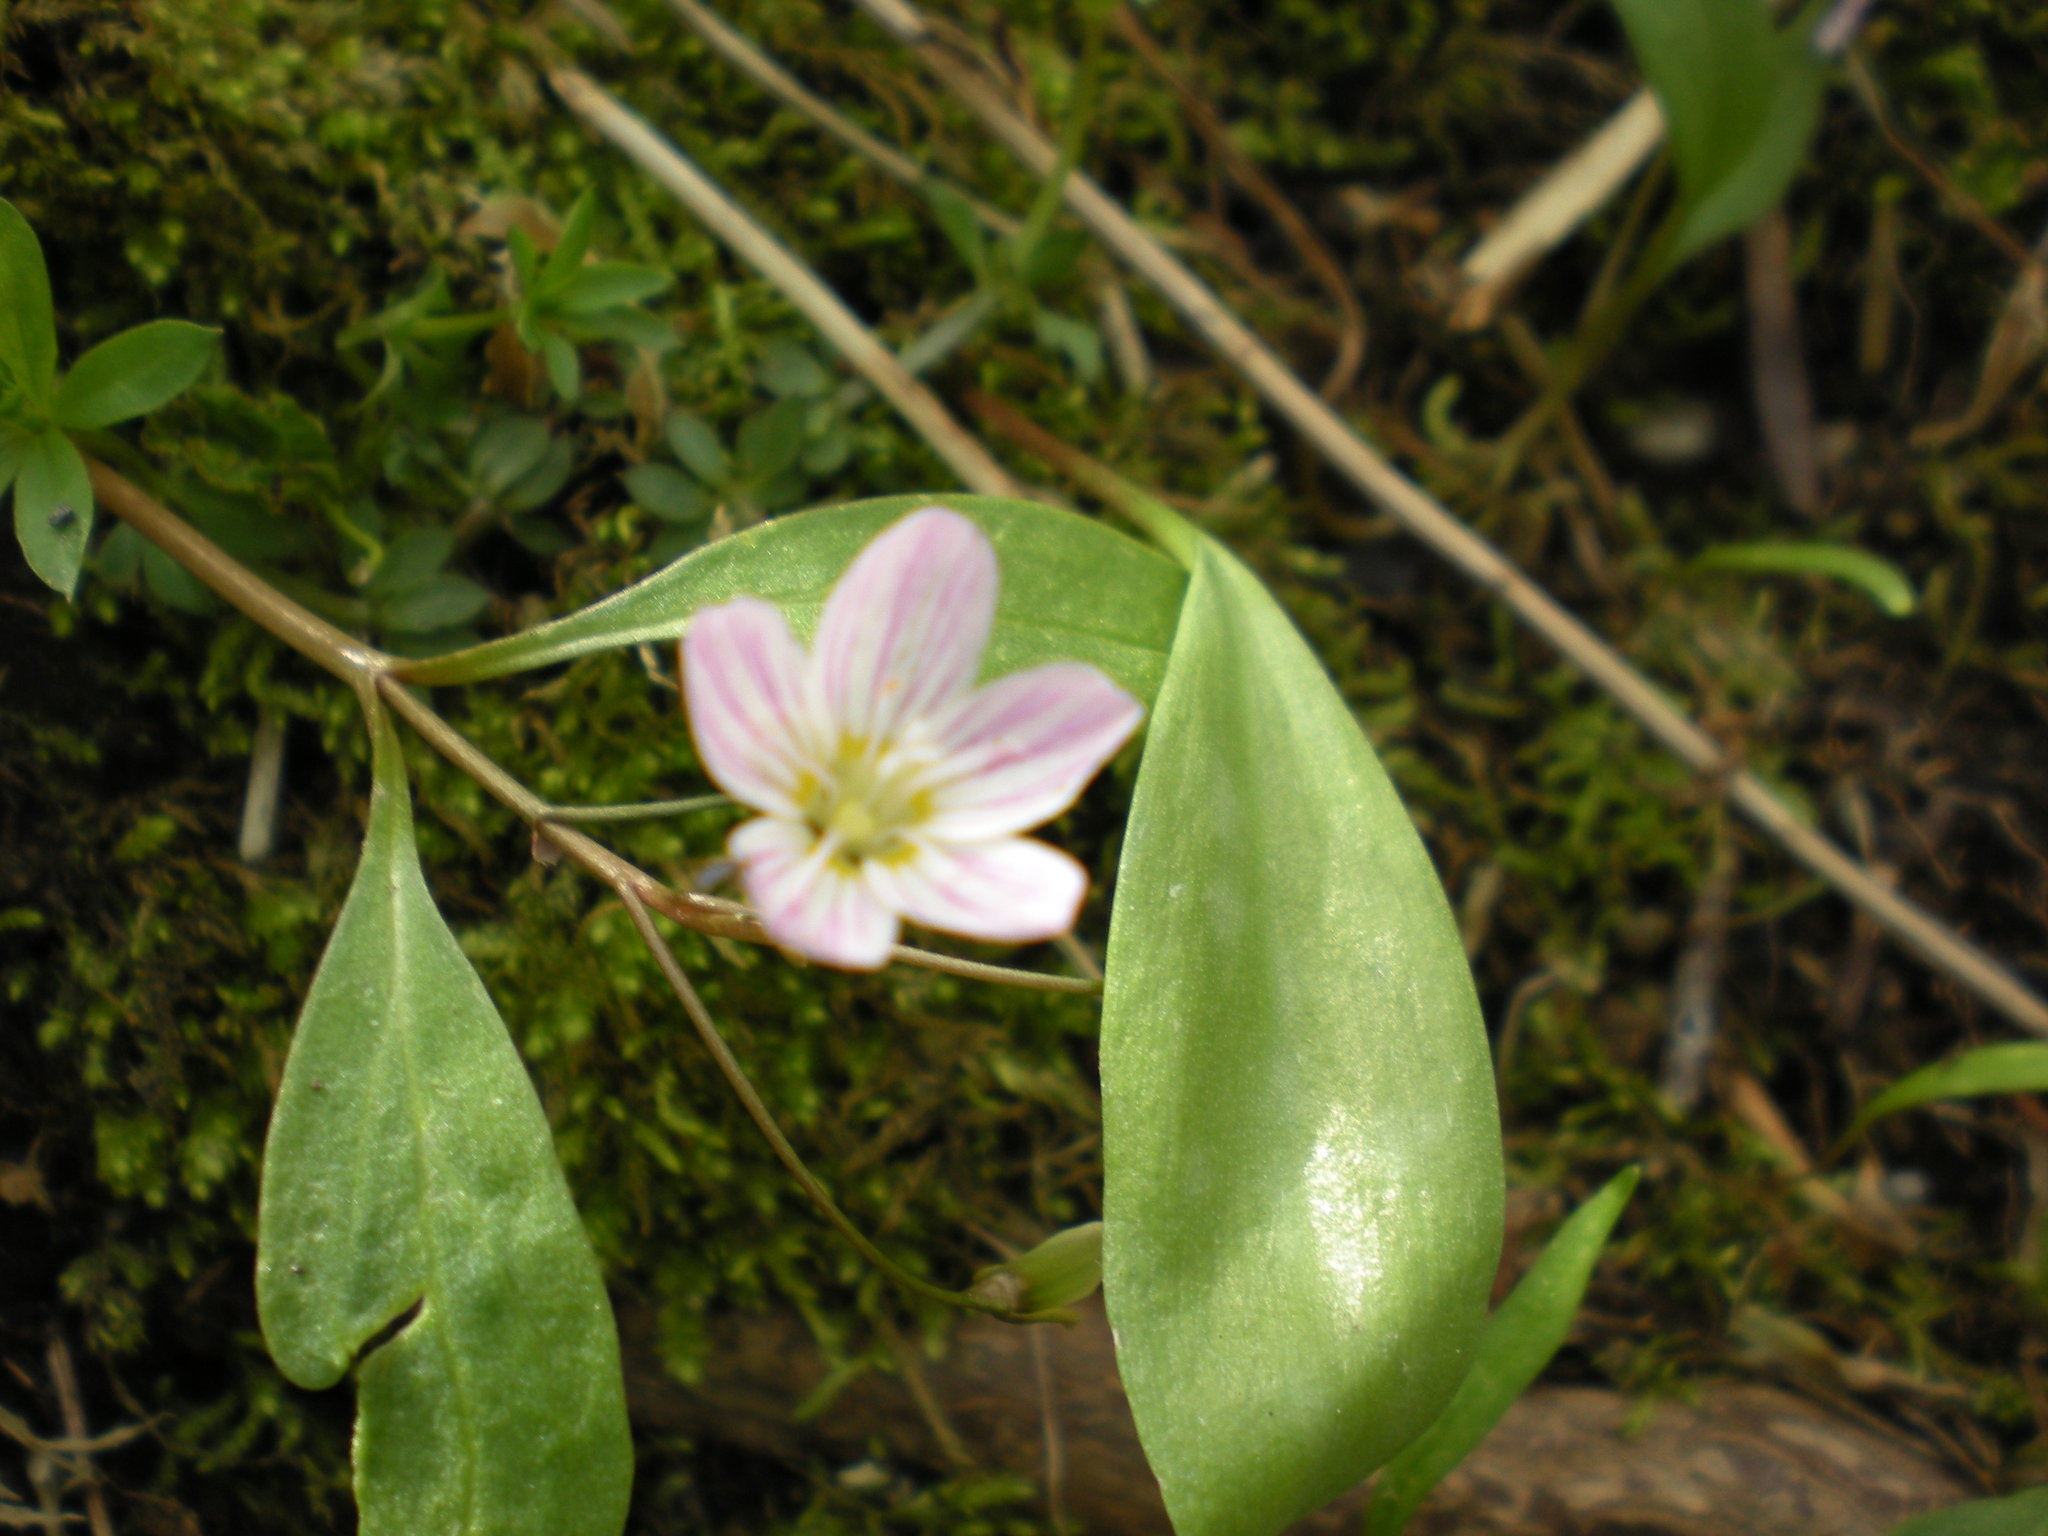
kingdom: Plantae
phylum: Tracheophyta
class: Magnoliopsida
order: Caryophyllales
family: Montiaceae
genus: Claytonia
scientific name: Claytonia caroliniana
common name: Carolina spring beauty
